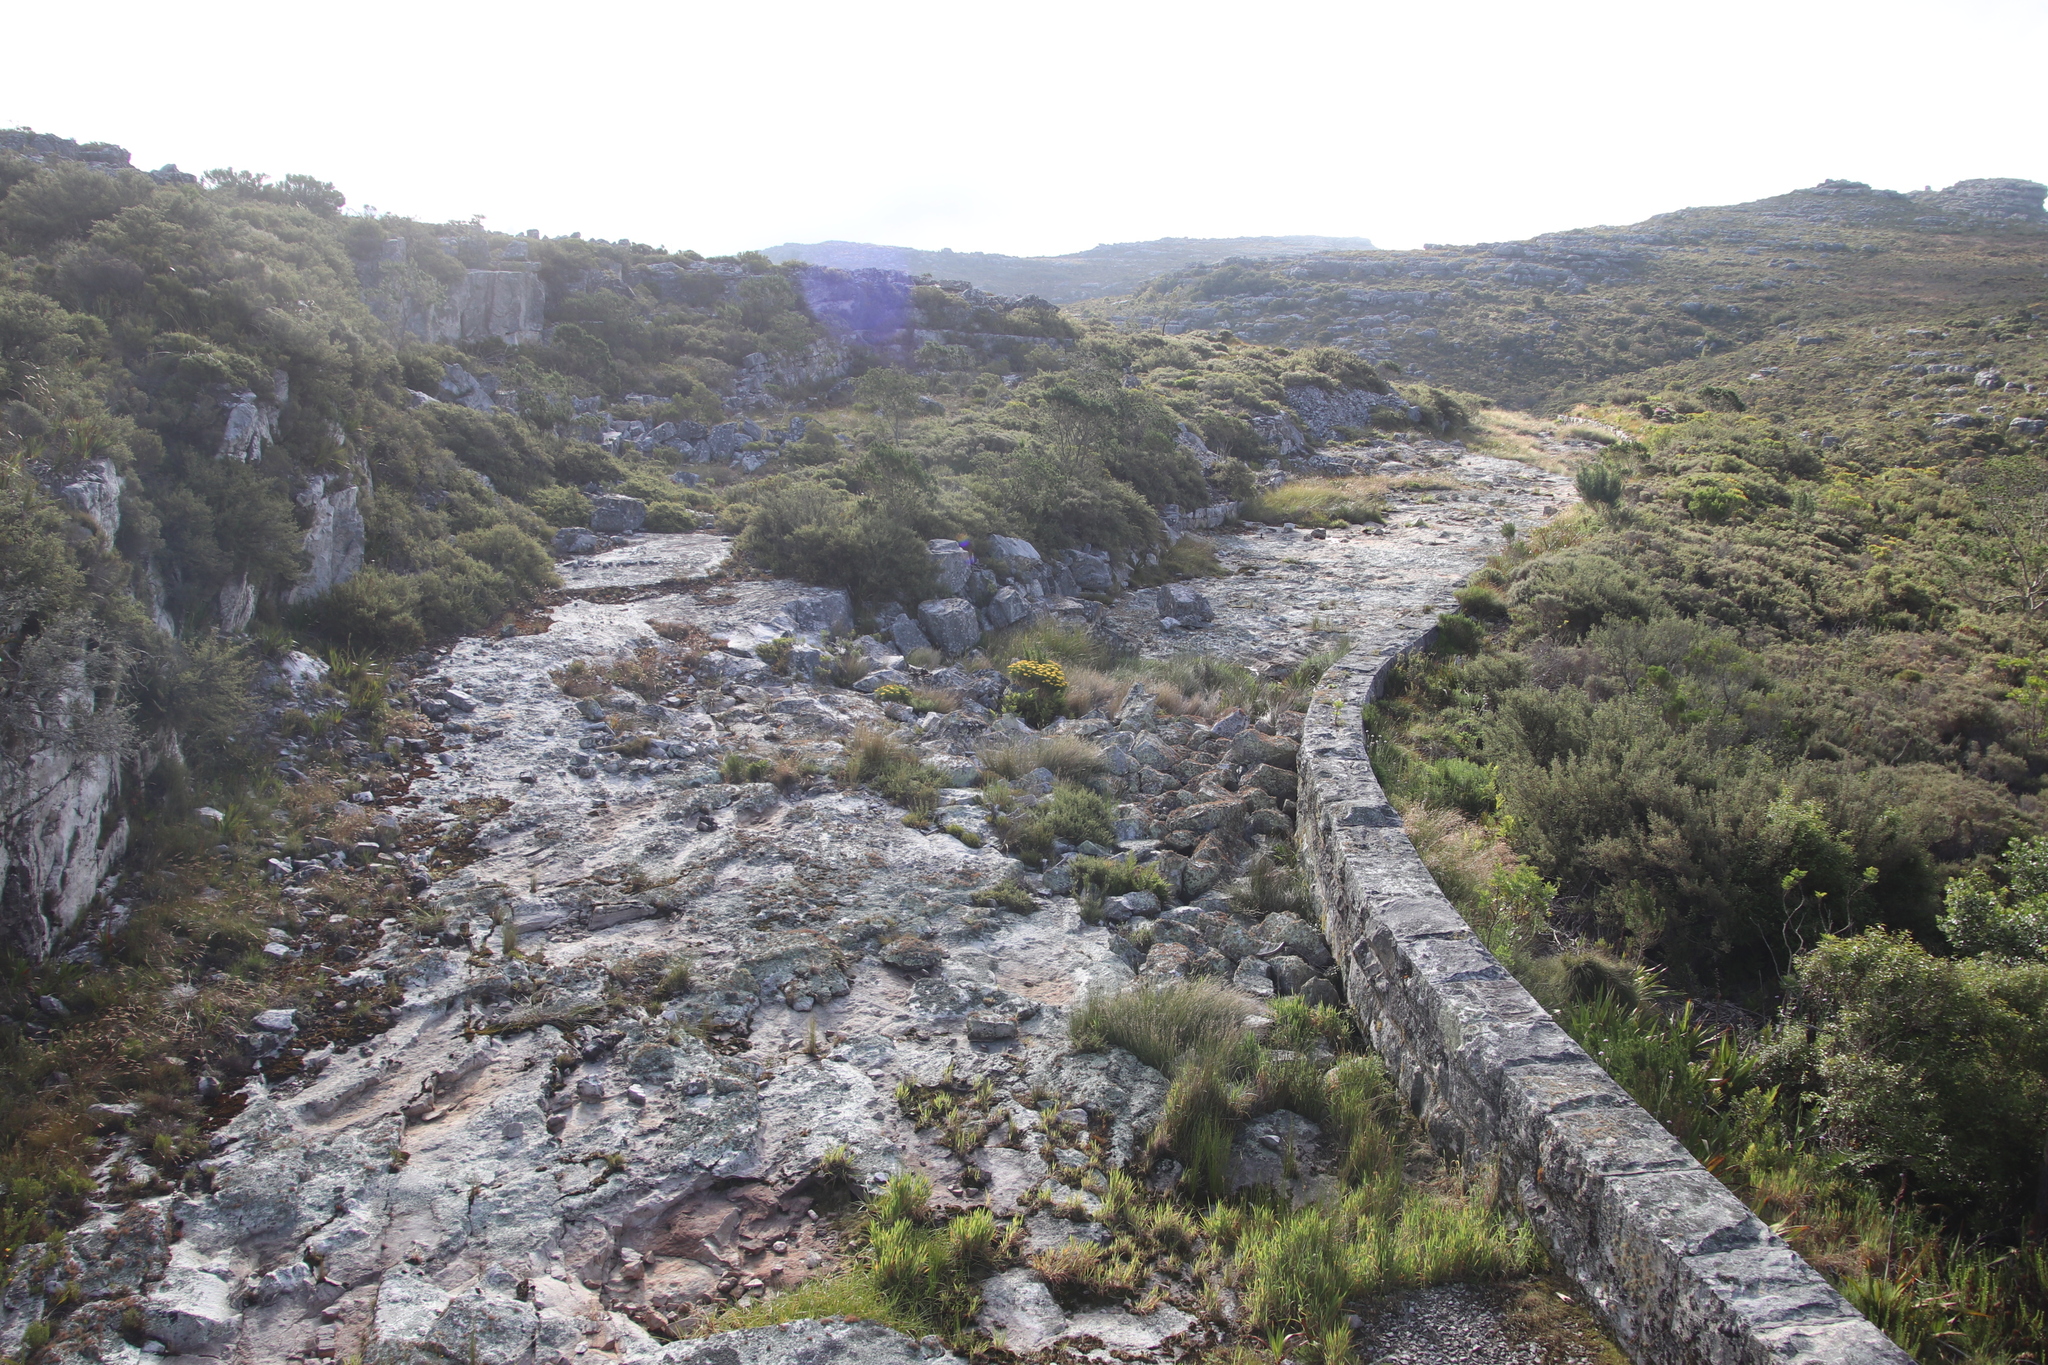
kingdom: Plantae
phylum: Tracheophyta
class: Magnoliopsida
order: Asterales
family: Asteraceae
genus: Hymenolepis
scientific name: Hymenolepis crithmifolia
